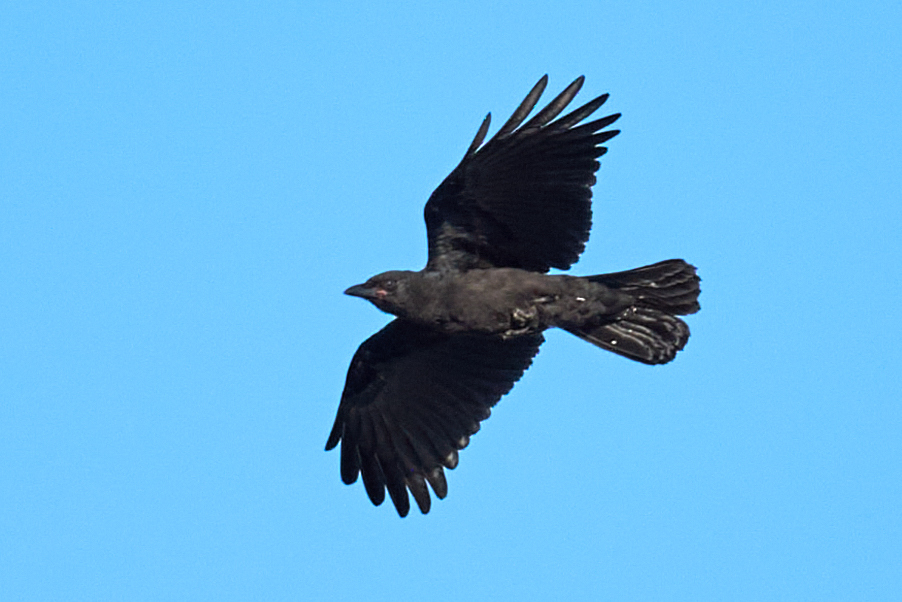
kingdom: Animalia
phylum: Chordata
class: Aves
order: Passeriformes
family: Corvidae
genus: Corvus
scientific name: Corvus brachyrhynchos
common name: American crow
